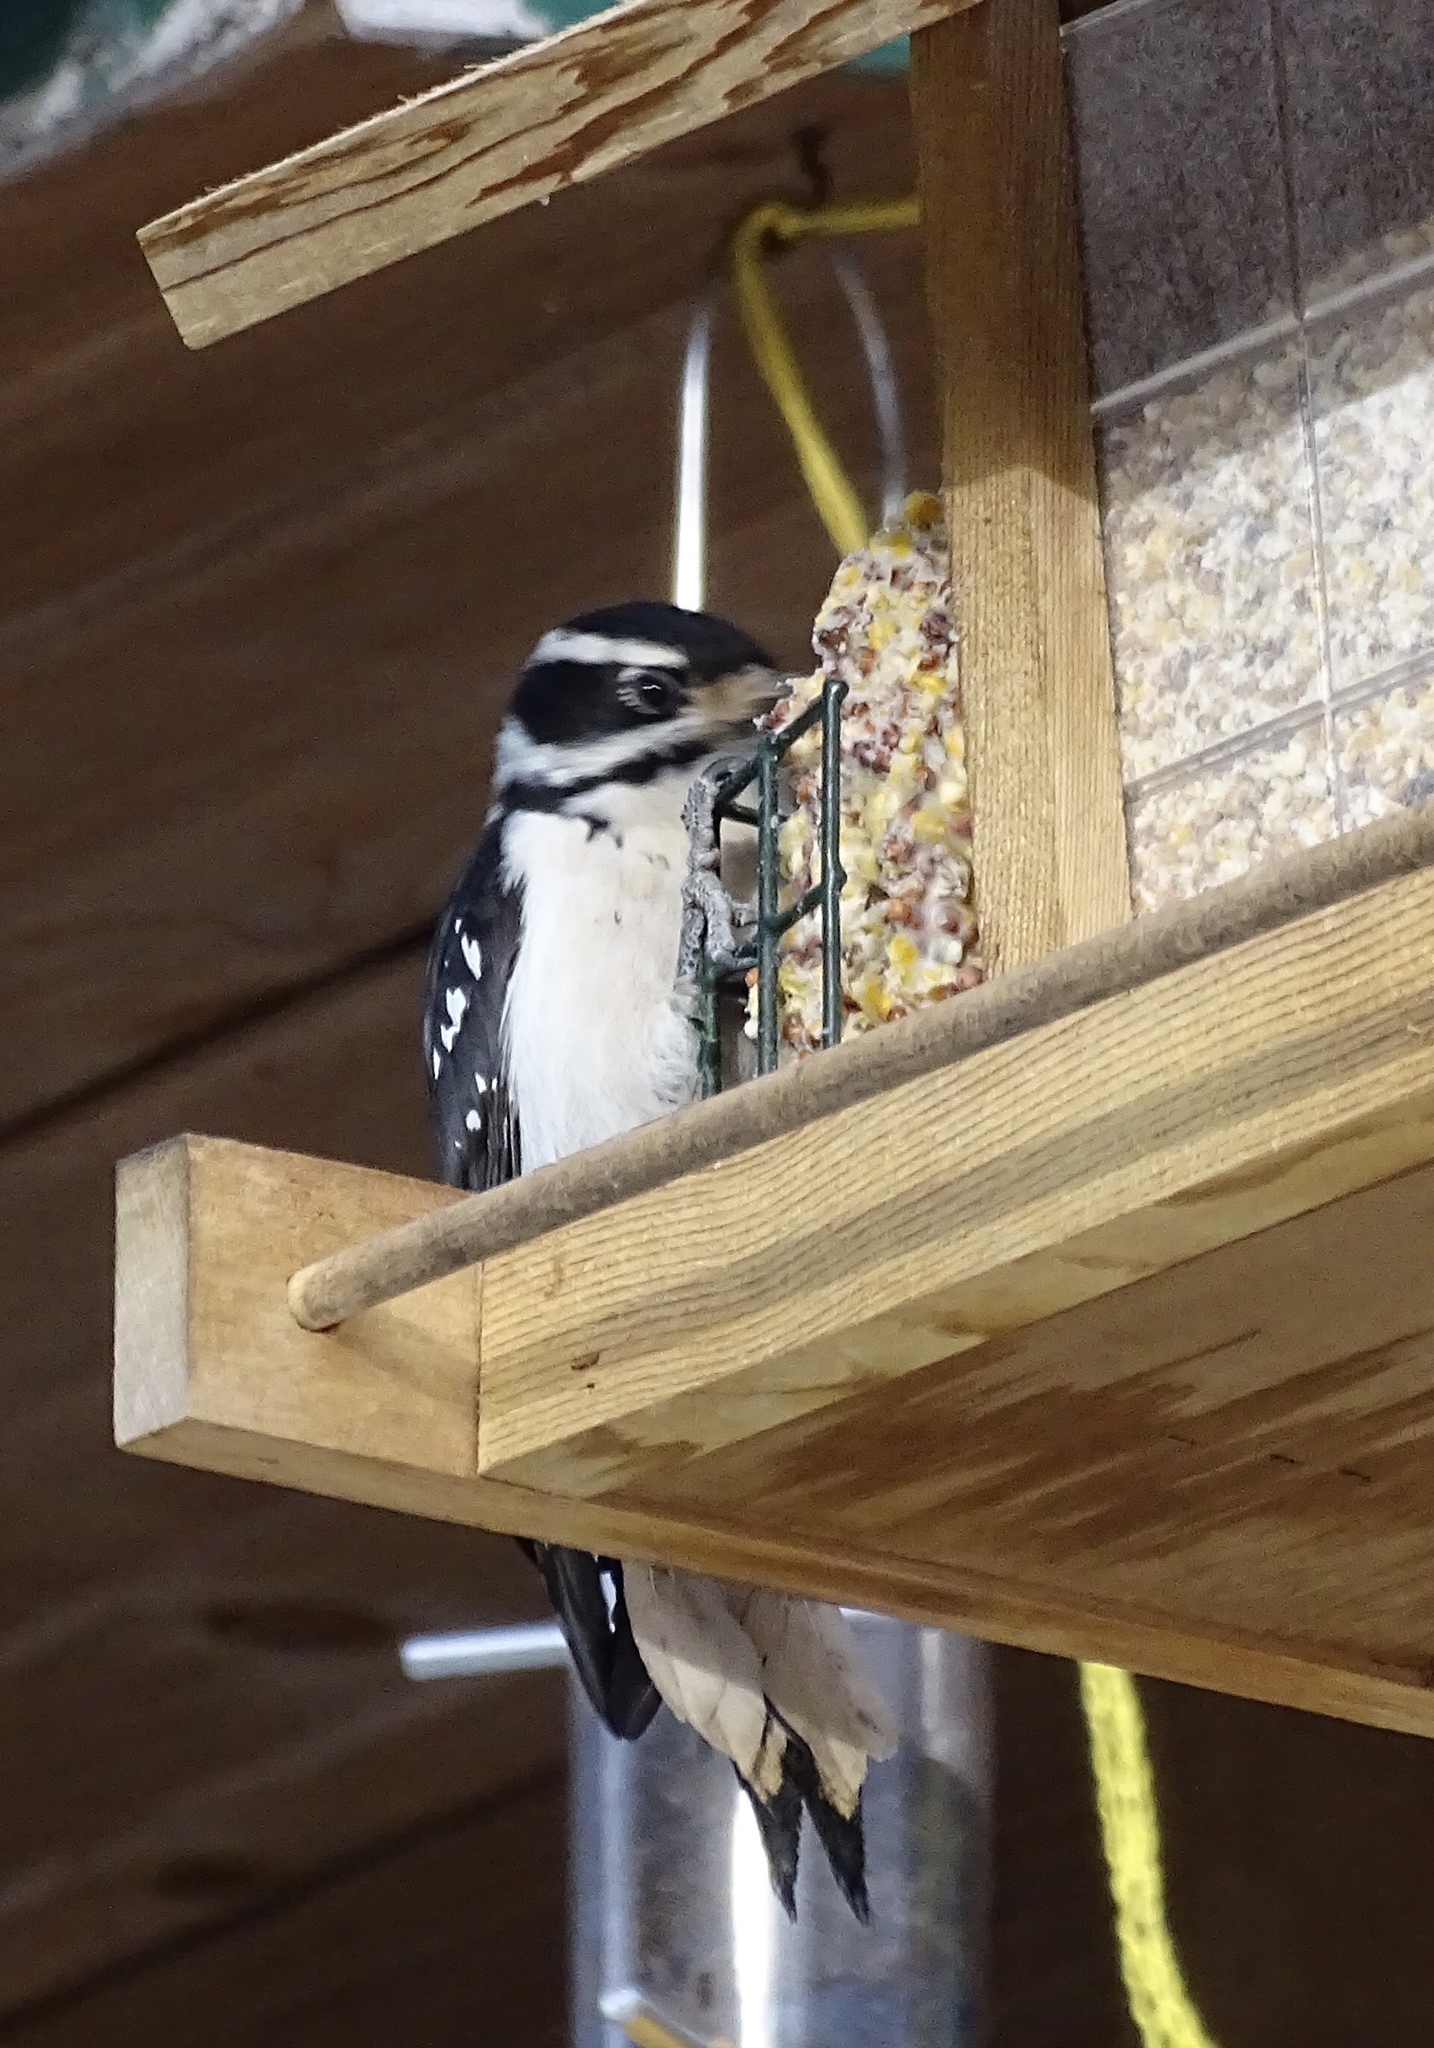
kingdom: Animalia
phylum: Chordata
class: Aves
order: Piciformes
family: Picidae
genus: Leuconotopicus
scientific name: Leuconotopicus villosus
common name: Hairy woodpecker
